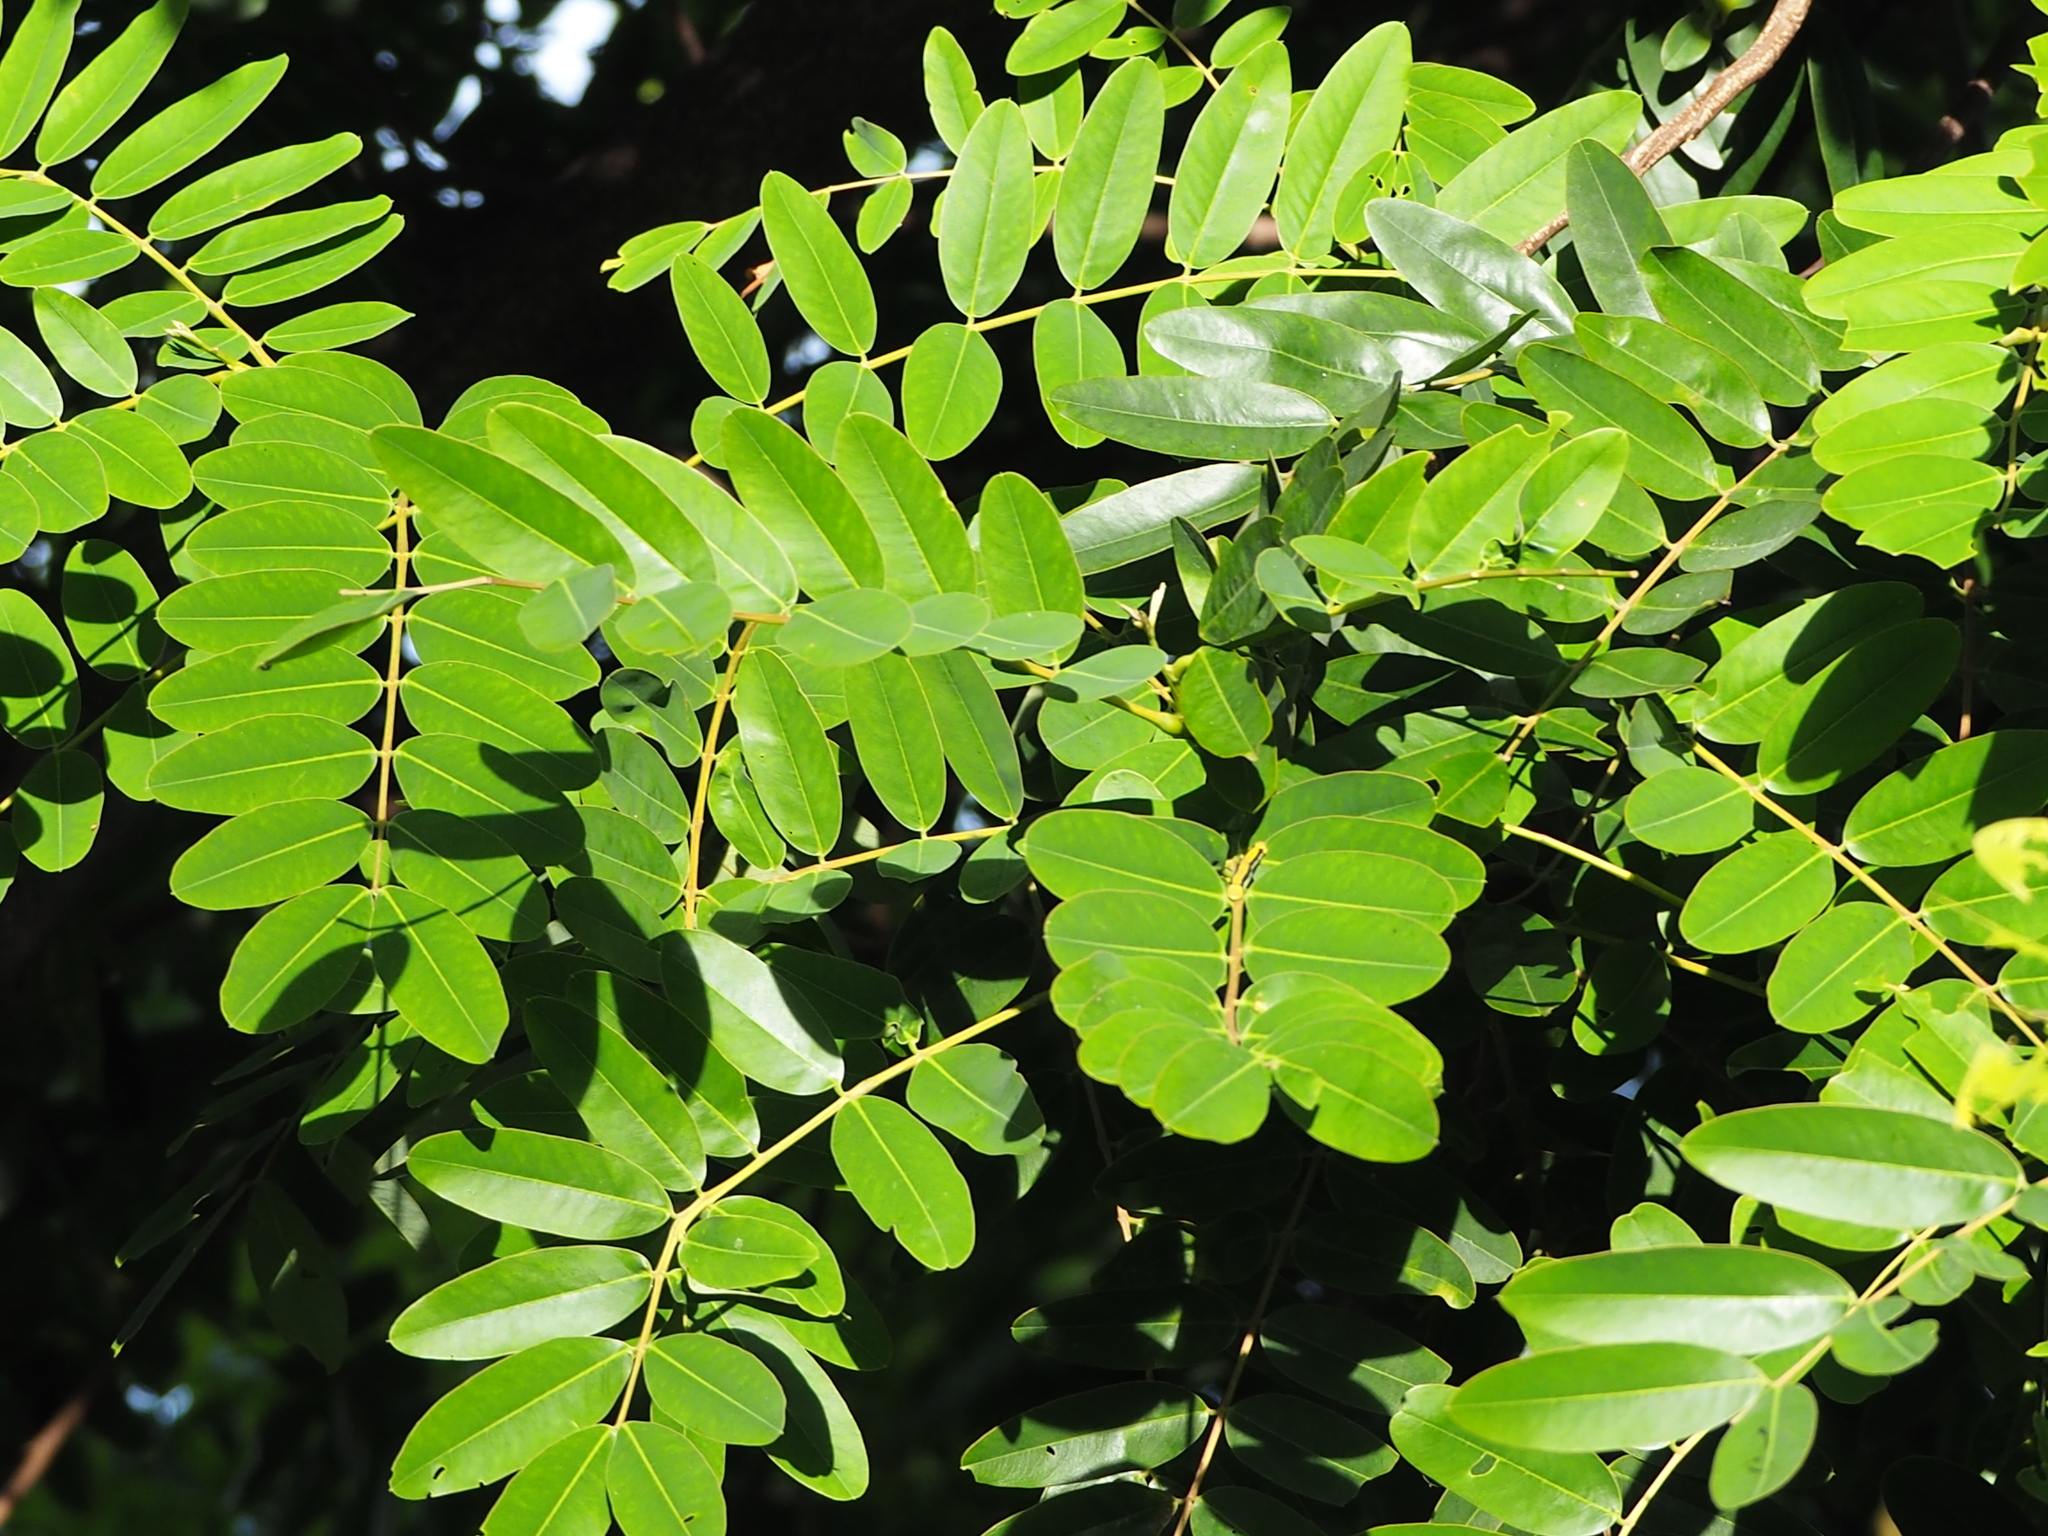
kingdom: Plantae
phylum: Tracheophyta
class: Magnoliopsida
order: Fabales
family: Fabaceae
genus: Senna
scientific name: Senna siamea
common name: Siamese cassia
